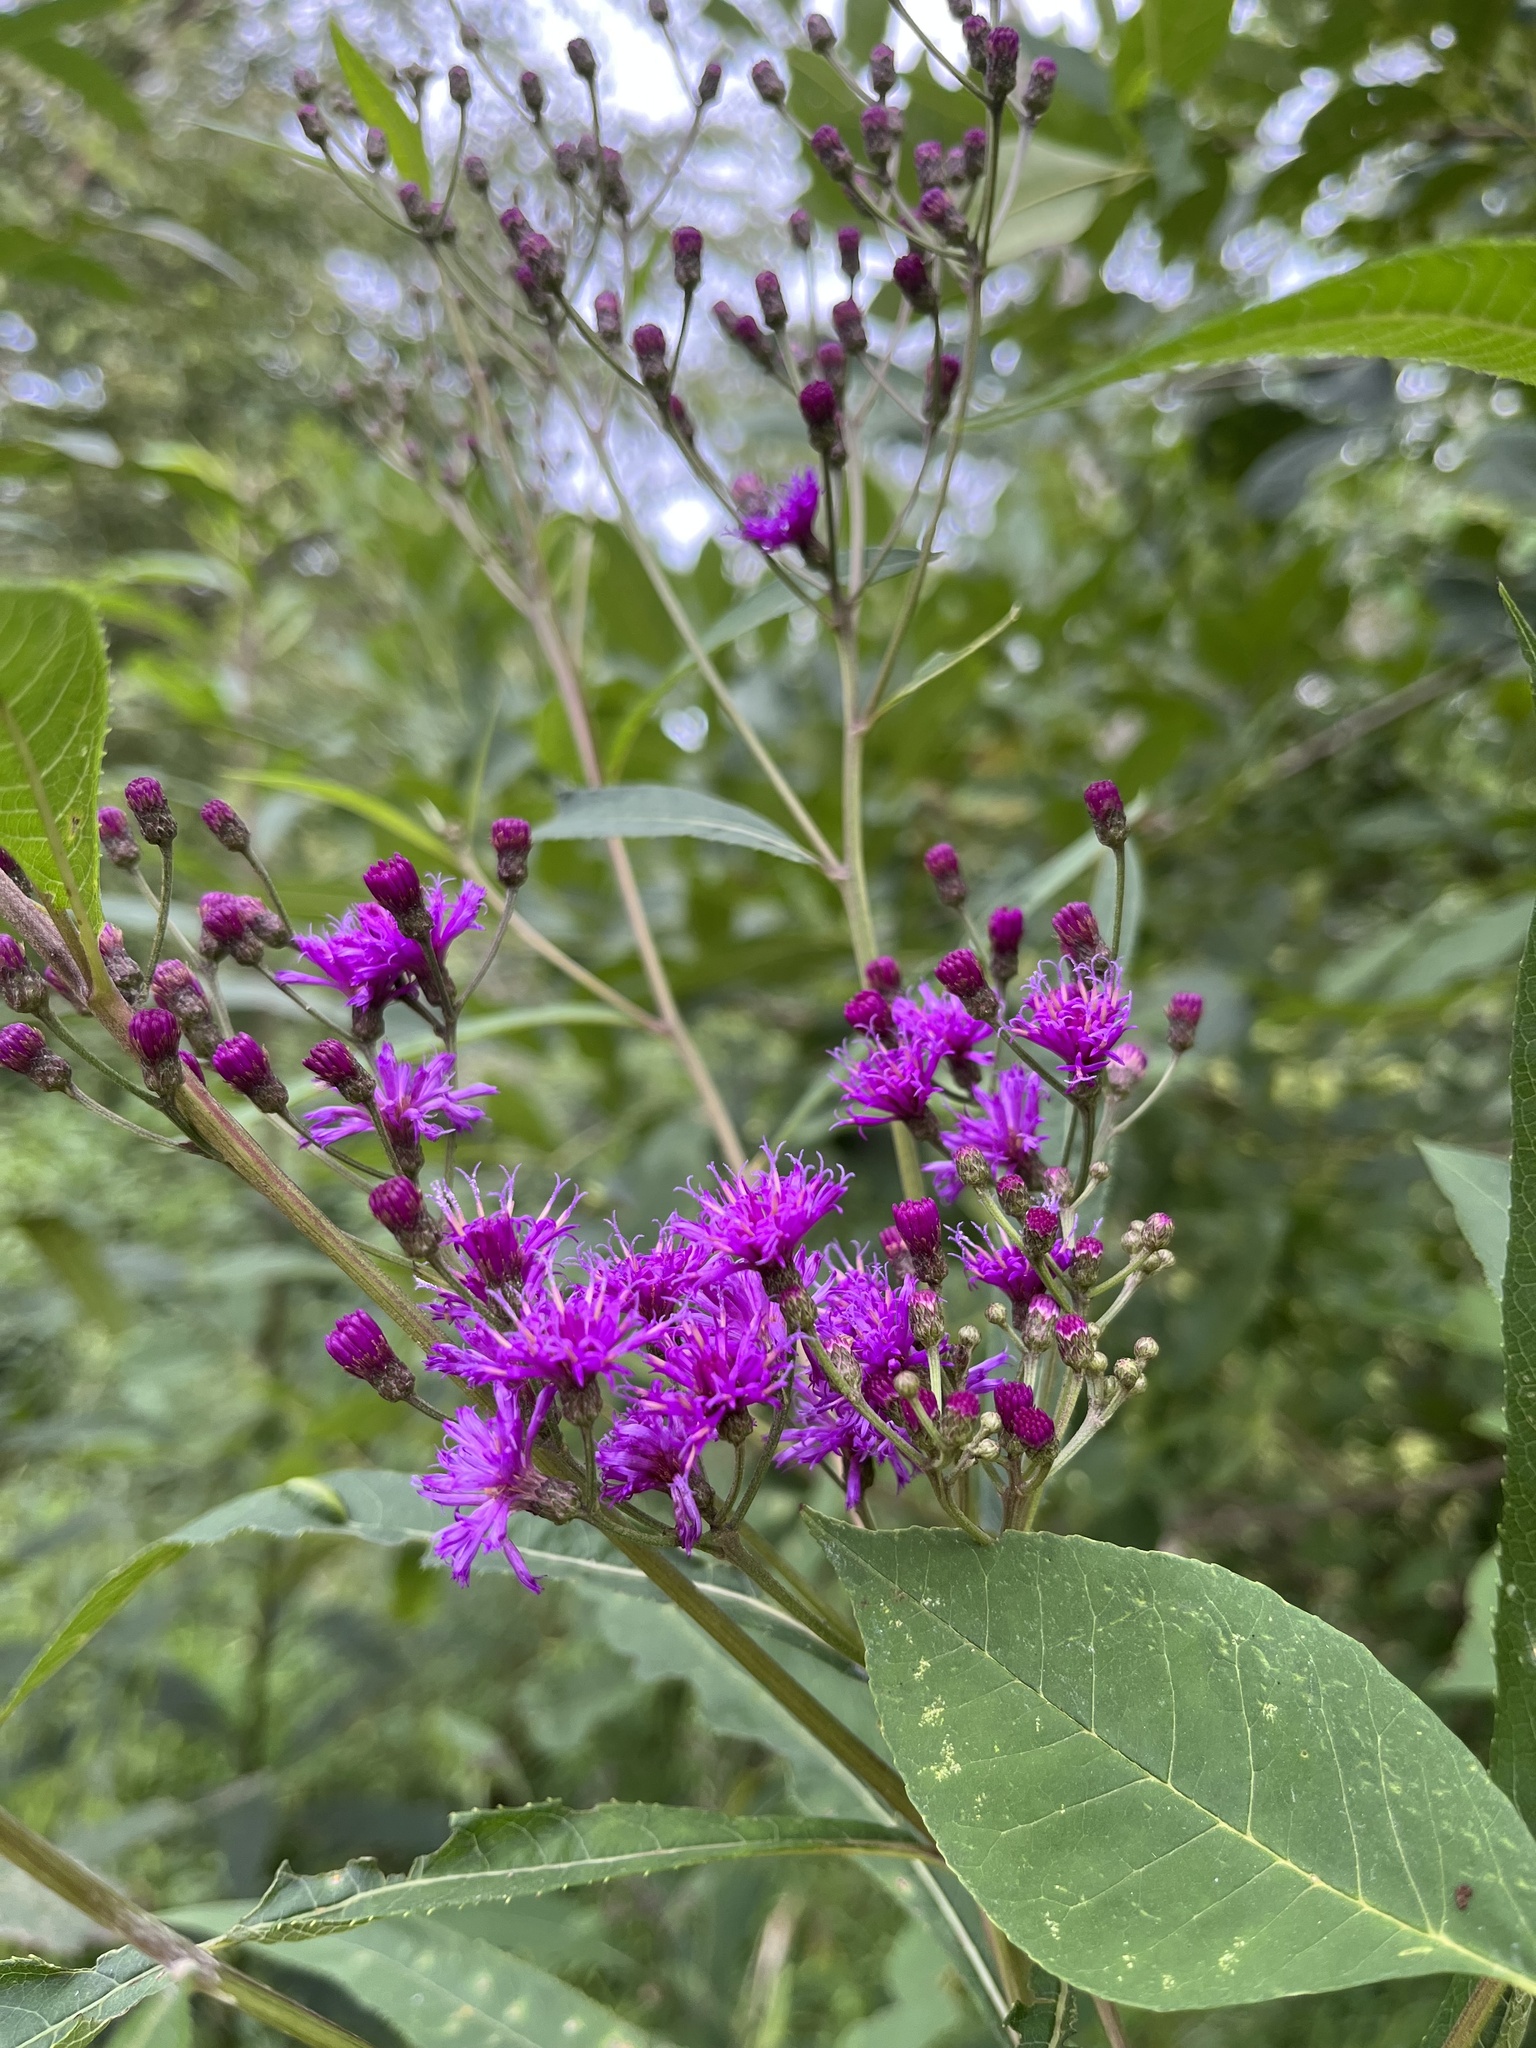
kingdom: Plantae
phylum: Tracheophyta
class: Magnoliopsida
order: Asterales
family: Asteraceae
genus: Vernonia
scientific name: Vernonia gigantea
